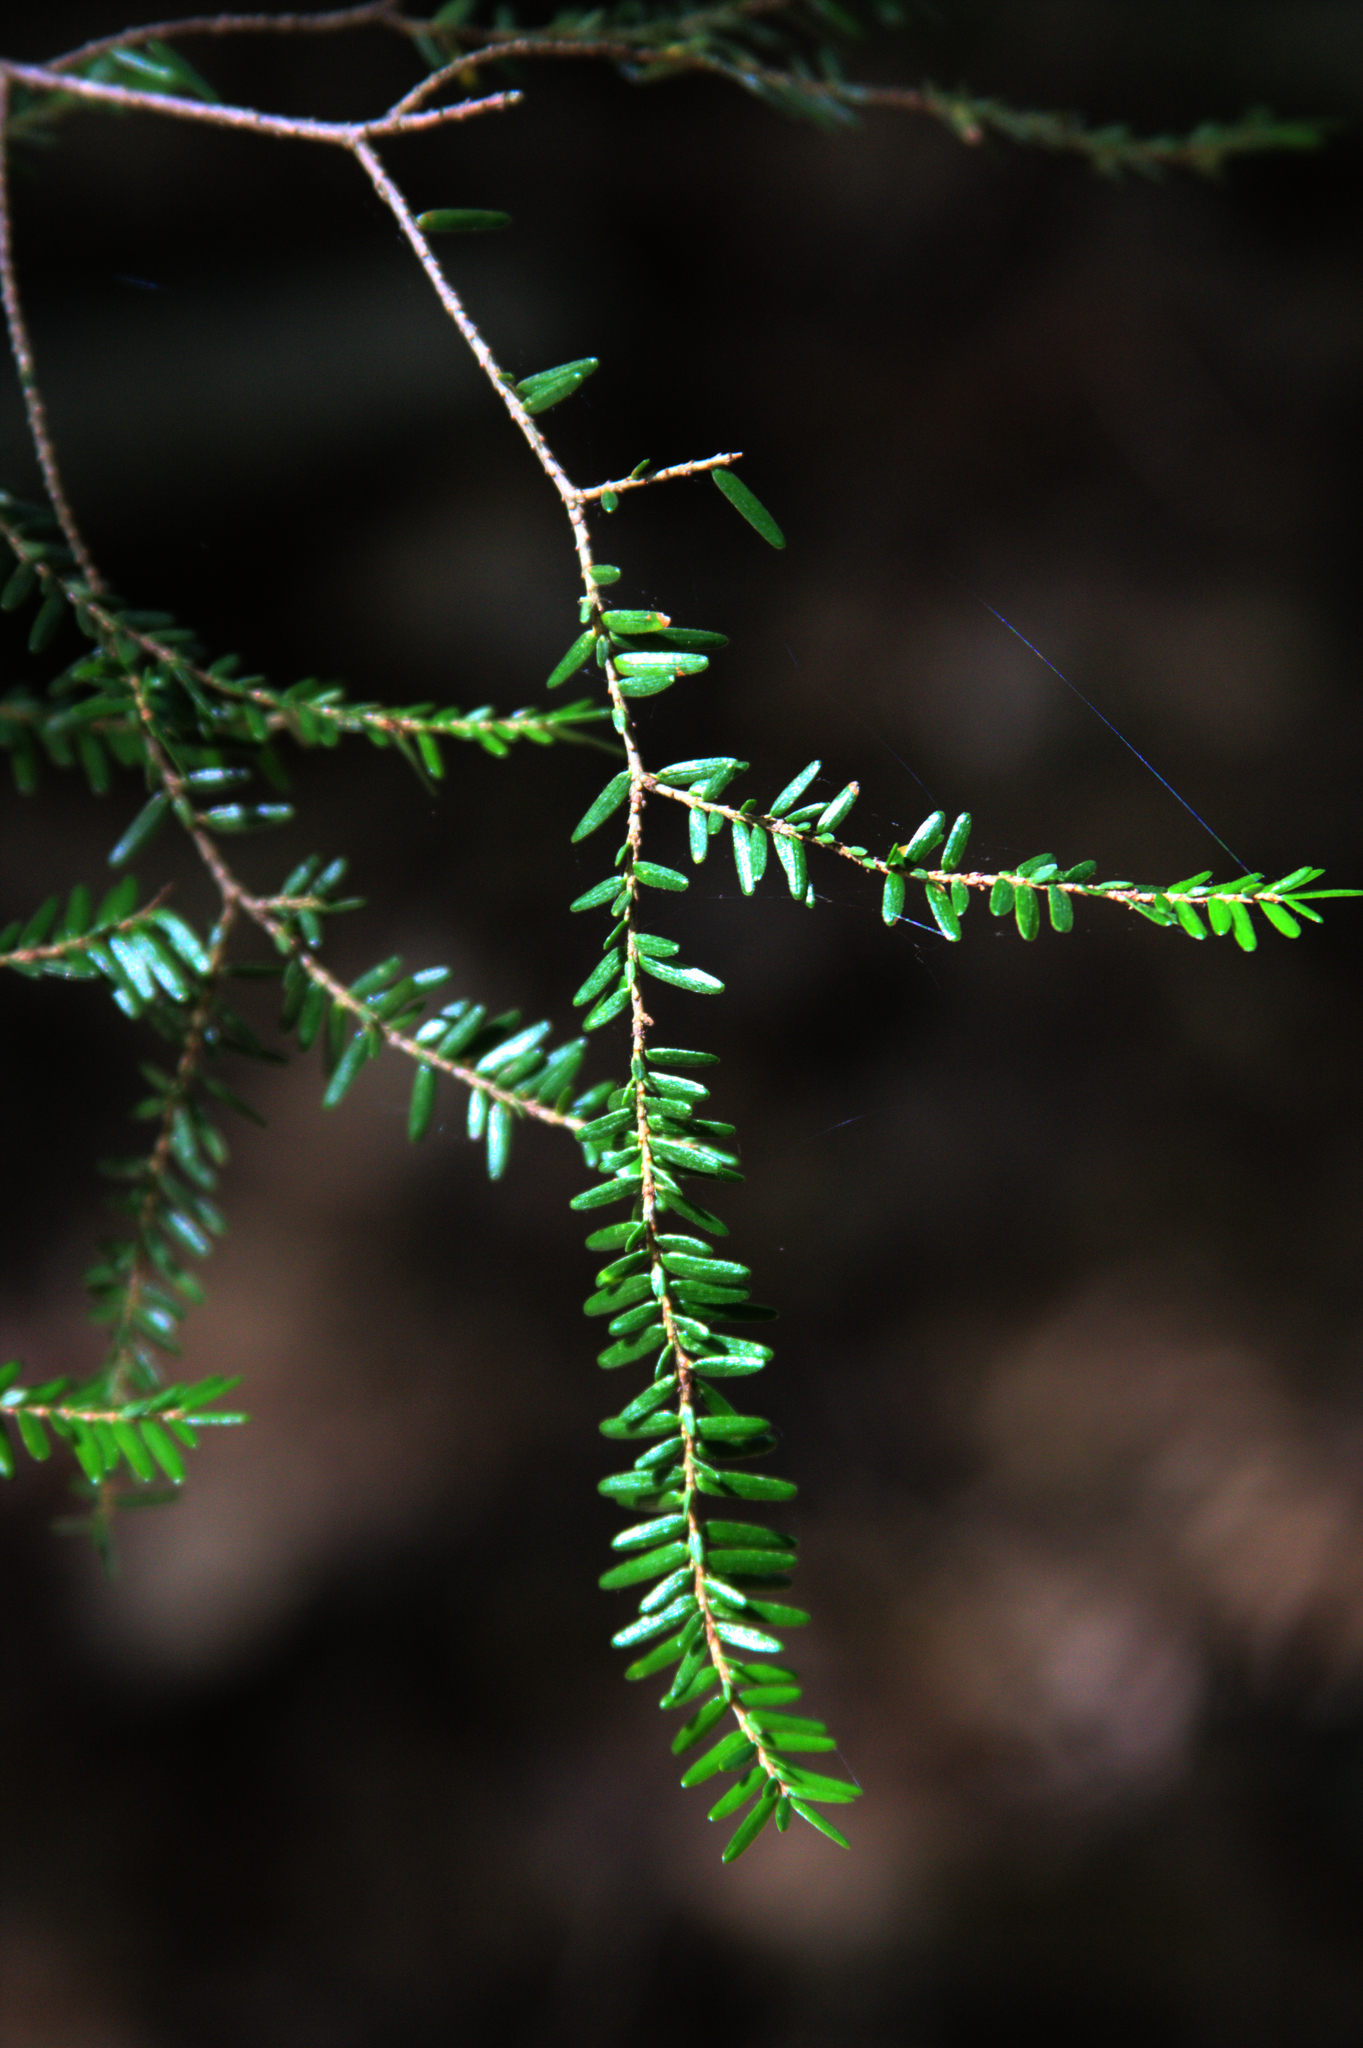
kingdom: Plantae
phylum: Tracheophyta
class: Pinopsida
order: Pinales
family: Pinaceae
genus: Tsuga
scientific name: Tsuga canadensis
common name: Eastern hemlock
